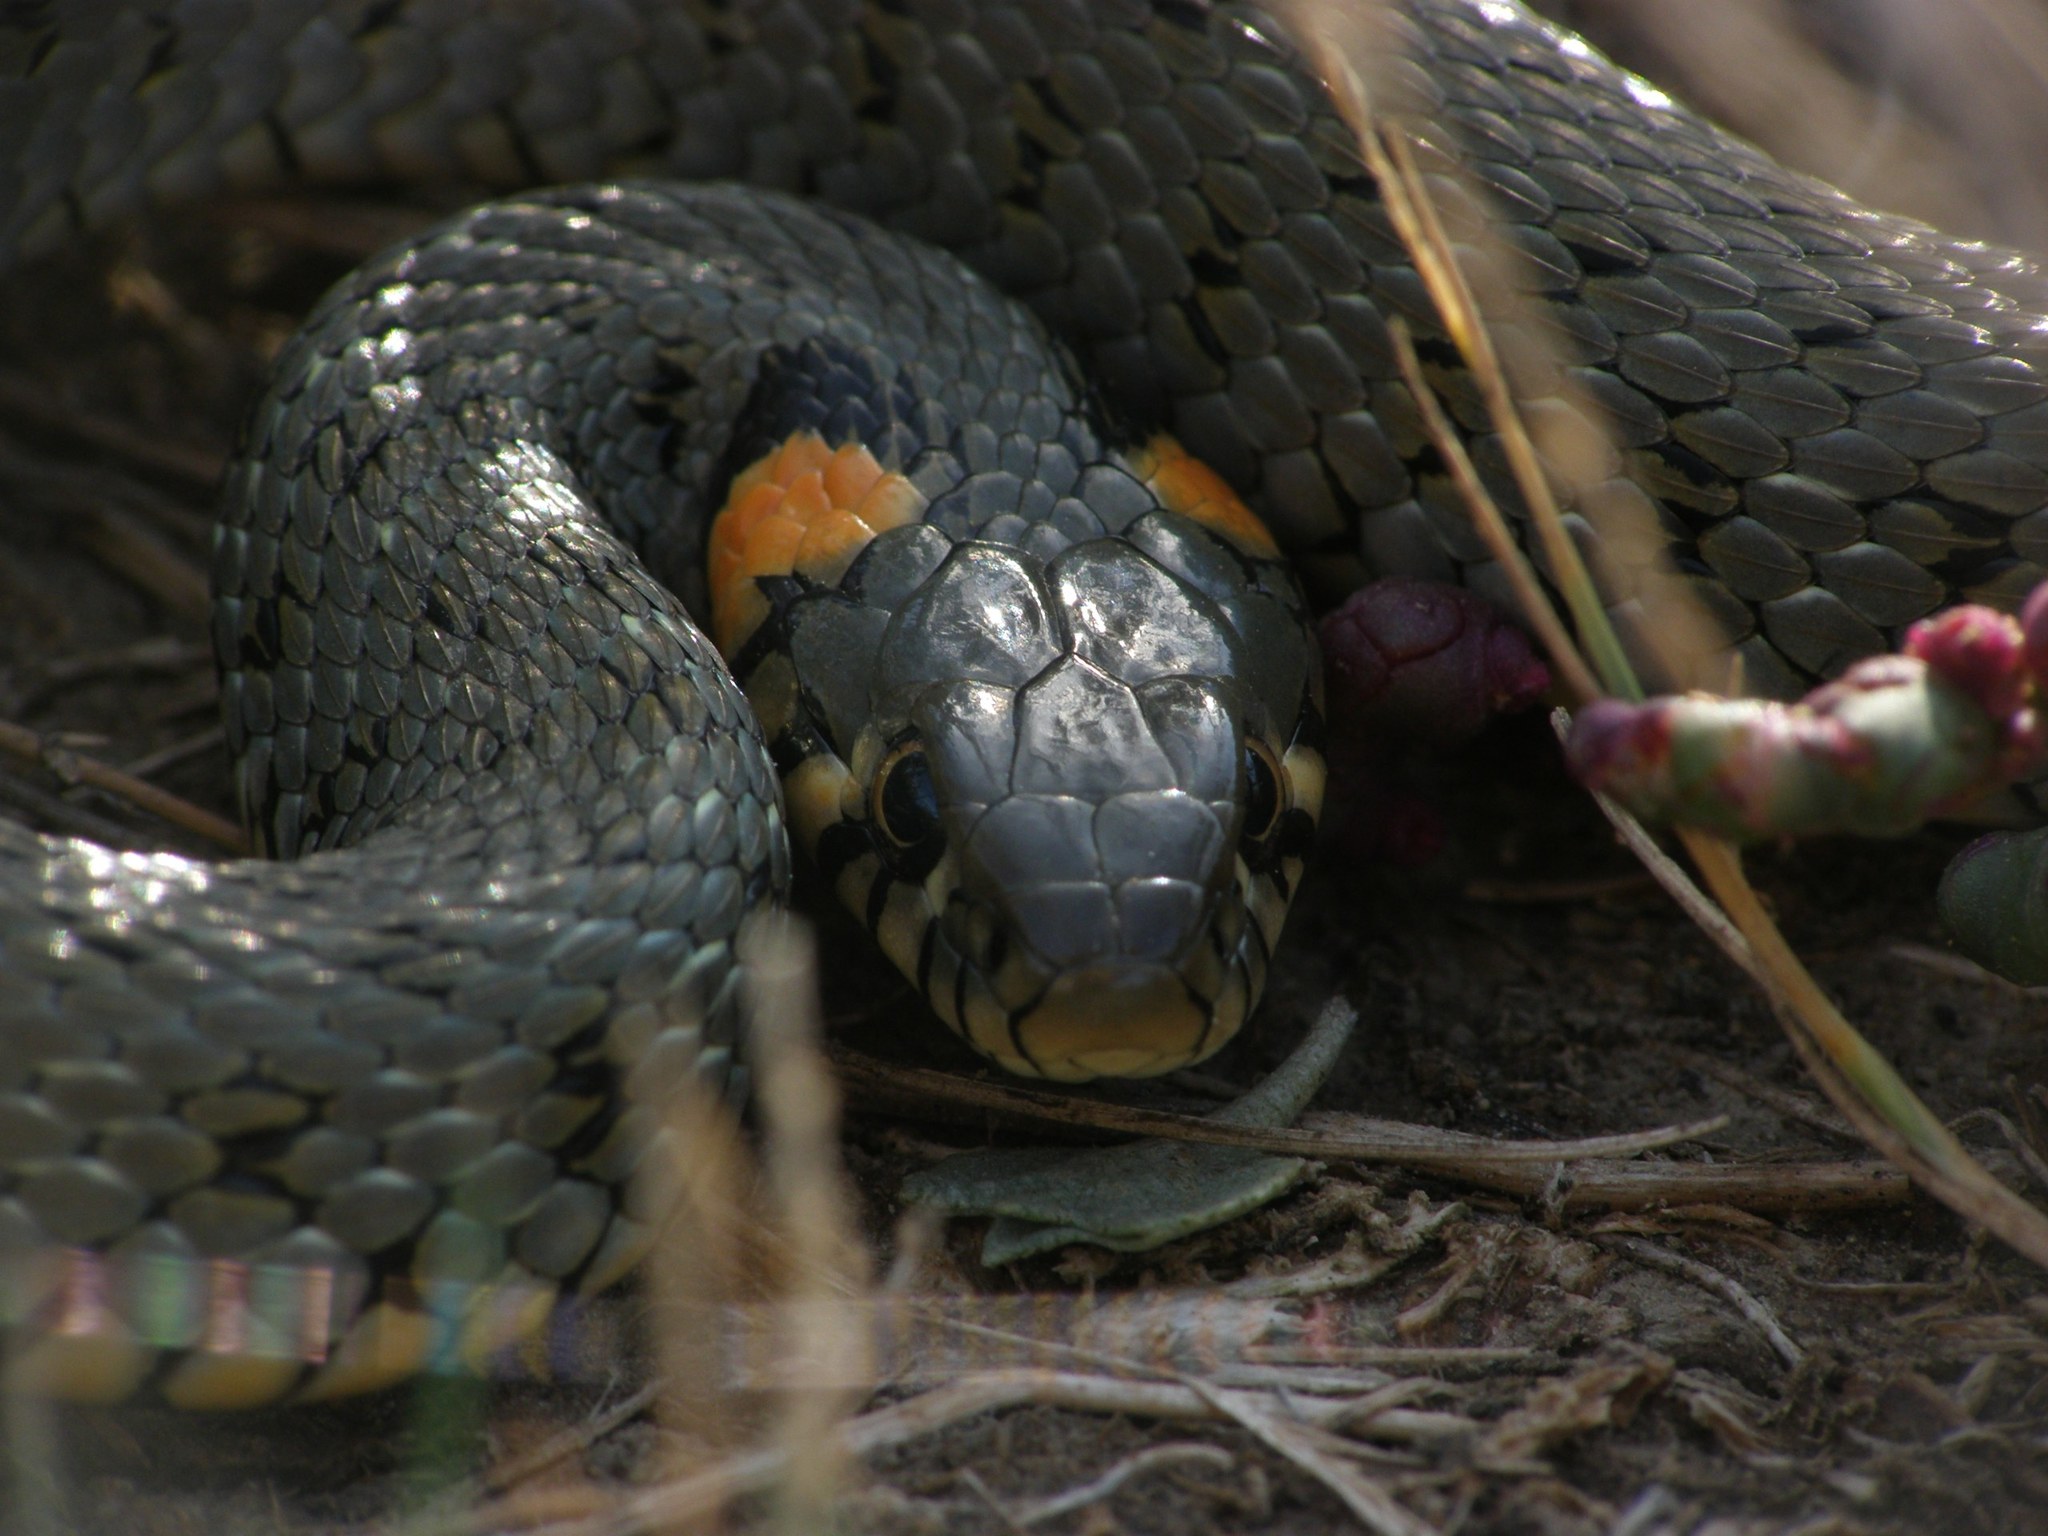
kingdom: Animalia
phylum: Chordata
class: Squamata
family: Colubridae
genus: Natrix
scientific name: Natrix natrix
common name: Grass snake
